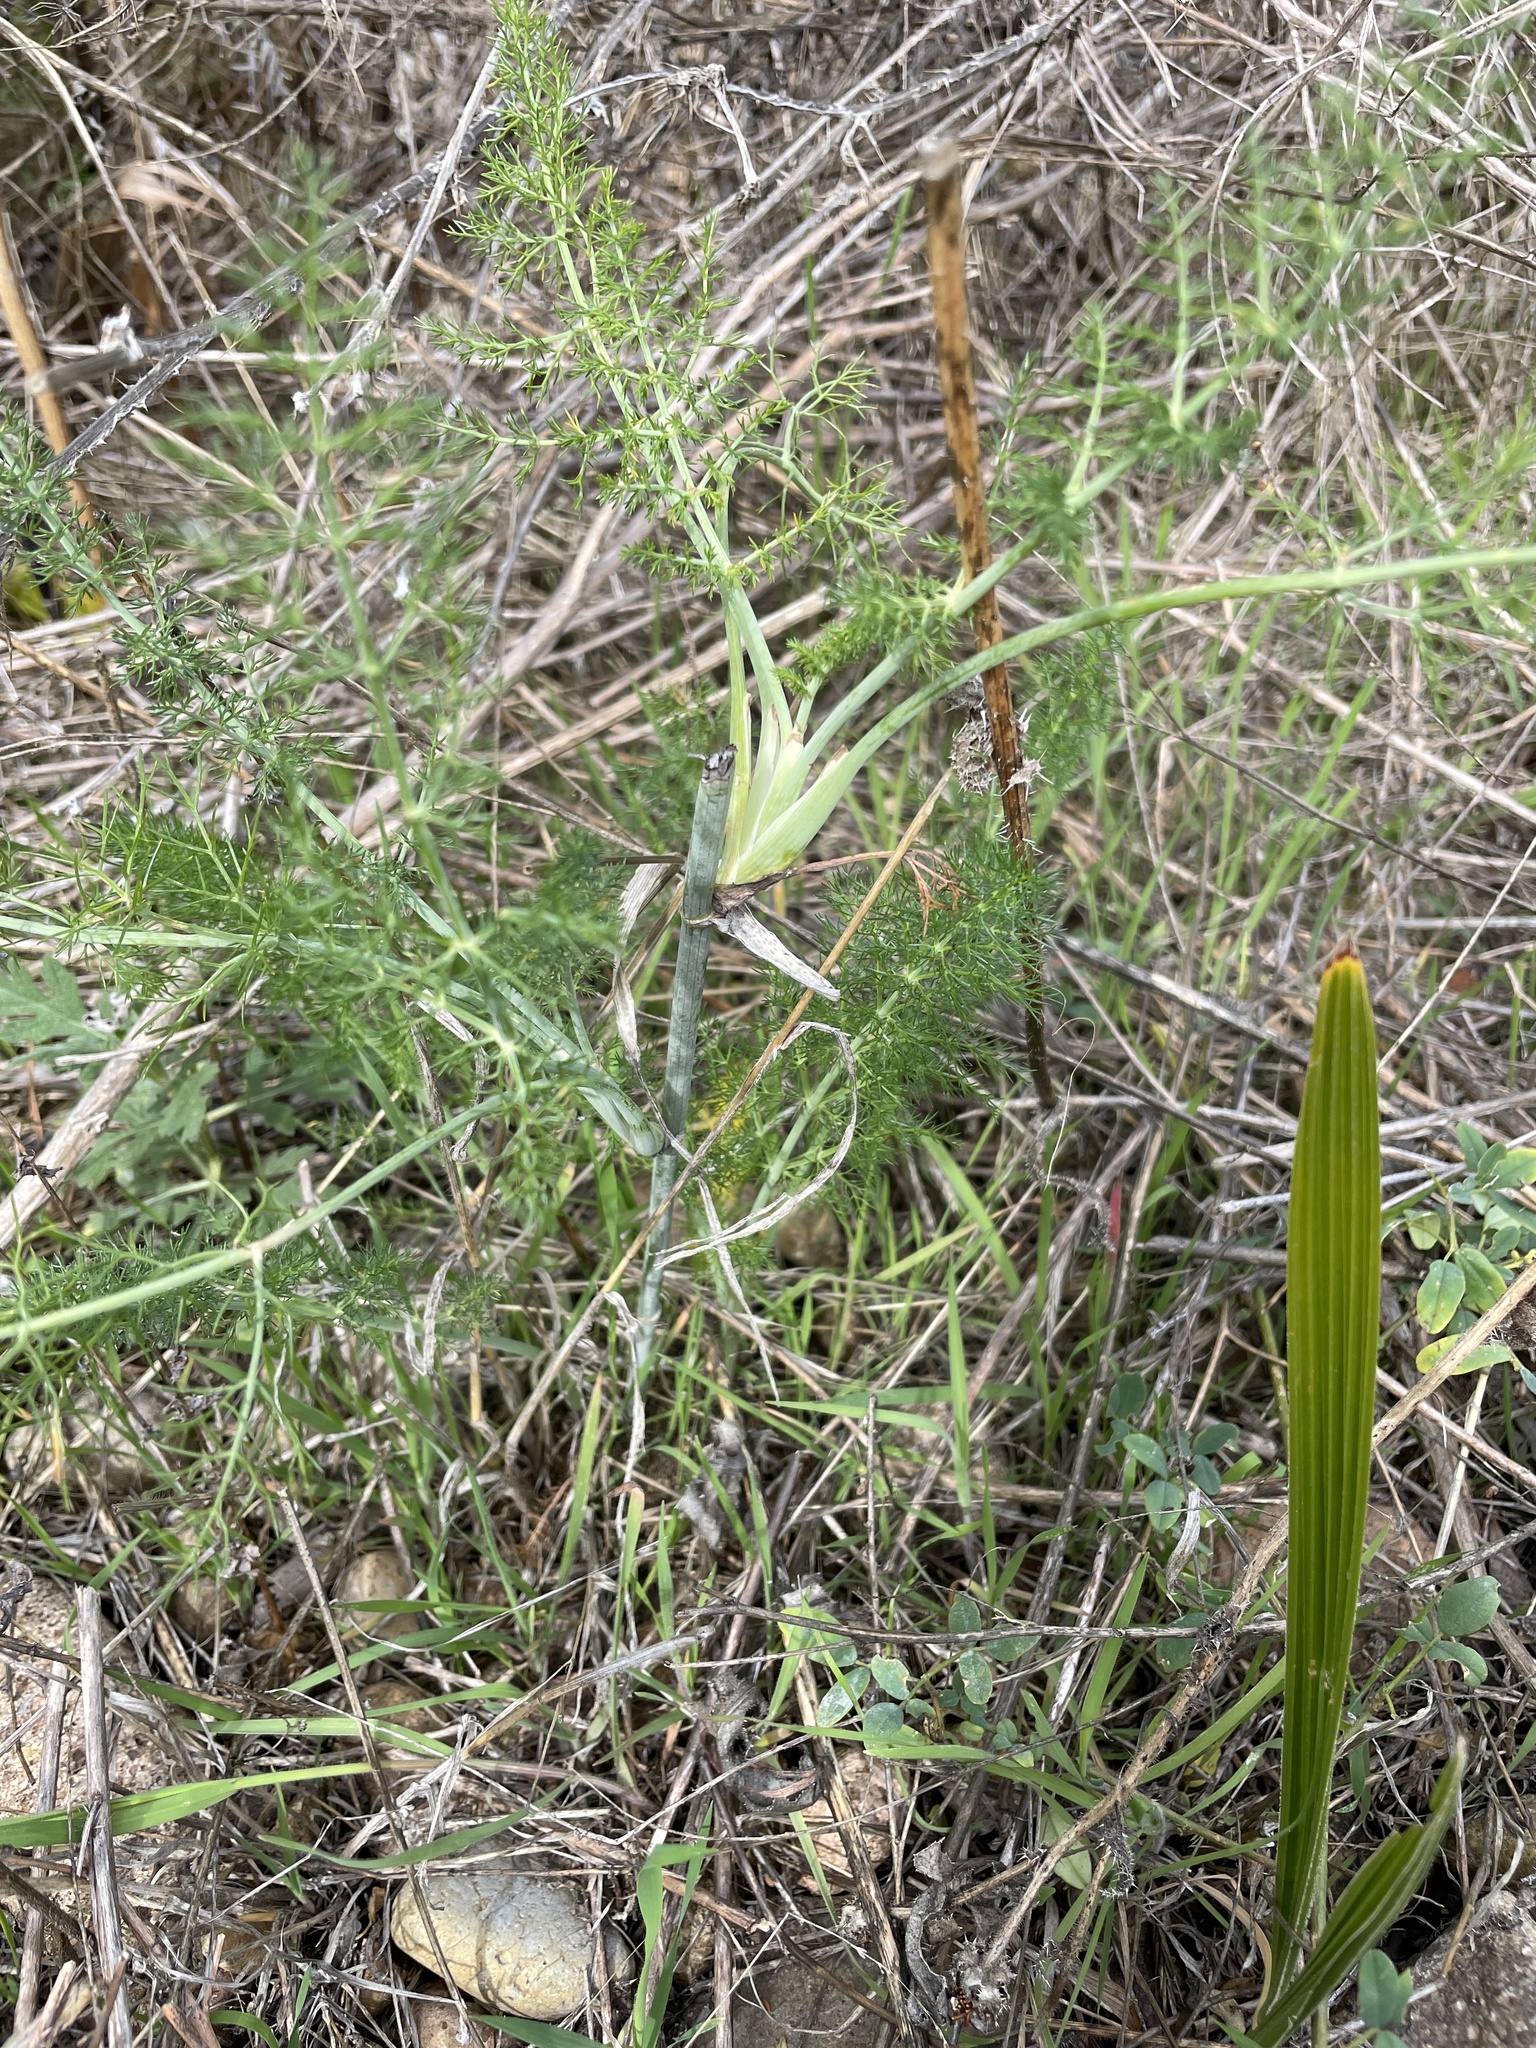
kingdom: Plantae
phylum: Tracheophyta
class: Magnoliopsida
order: Apiales
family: Apiaceae
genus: Foeniculum
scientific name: Foeniculum vulgare
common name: Fennel
